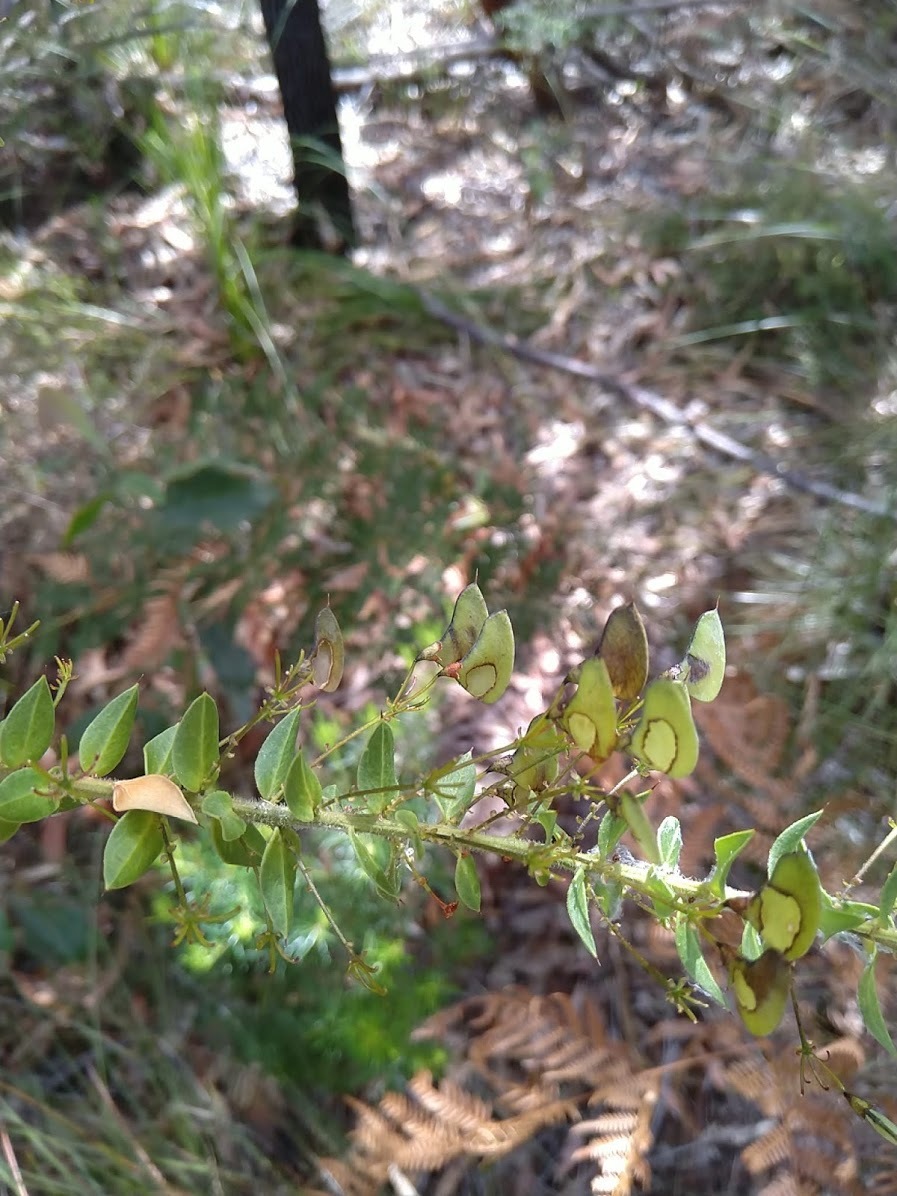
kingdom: Plantae
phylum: Tracheophyta
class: Magnoliopsida
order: Fabales
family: Fabaceae
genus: Daviesia
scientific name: Daviesia umbellulata
